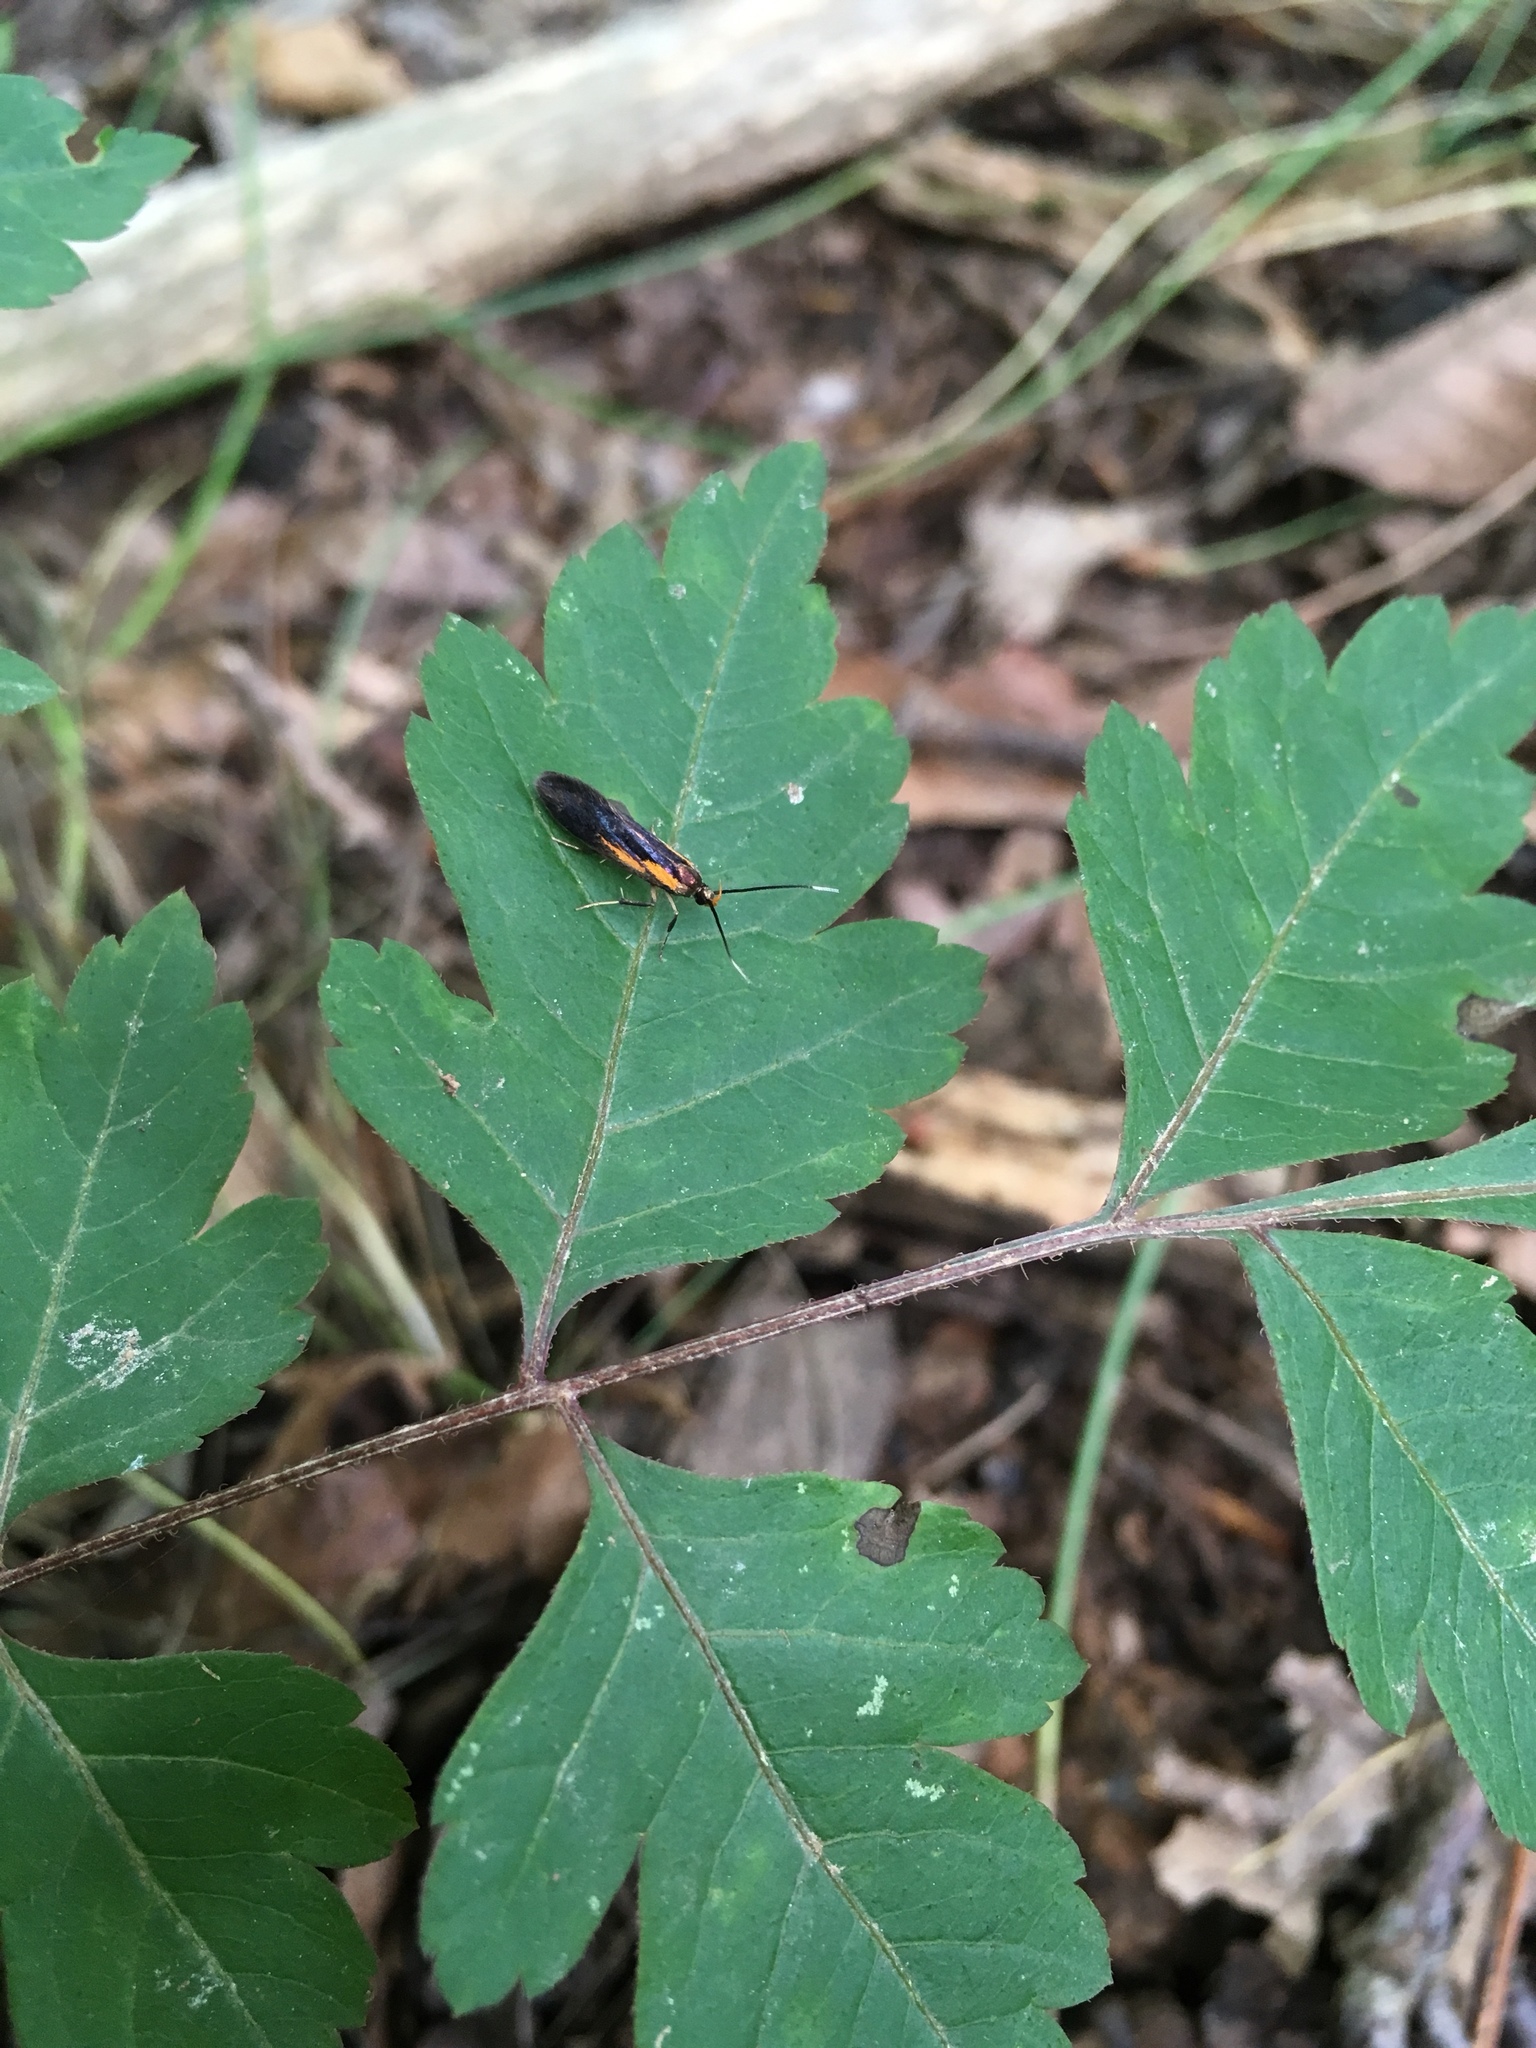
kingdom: Animalia
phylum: Arthropoda
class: Insecta
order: Lepidoptera
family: Oecophoridae
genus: Mathildana
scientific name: Mathildana newmanella
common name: Newman's mathildana moth
